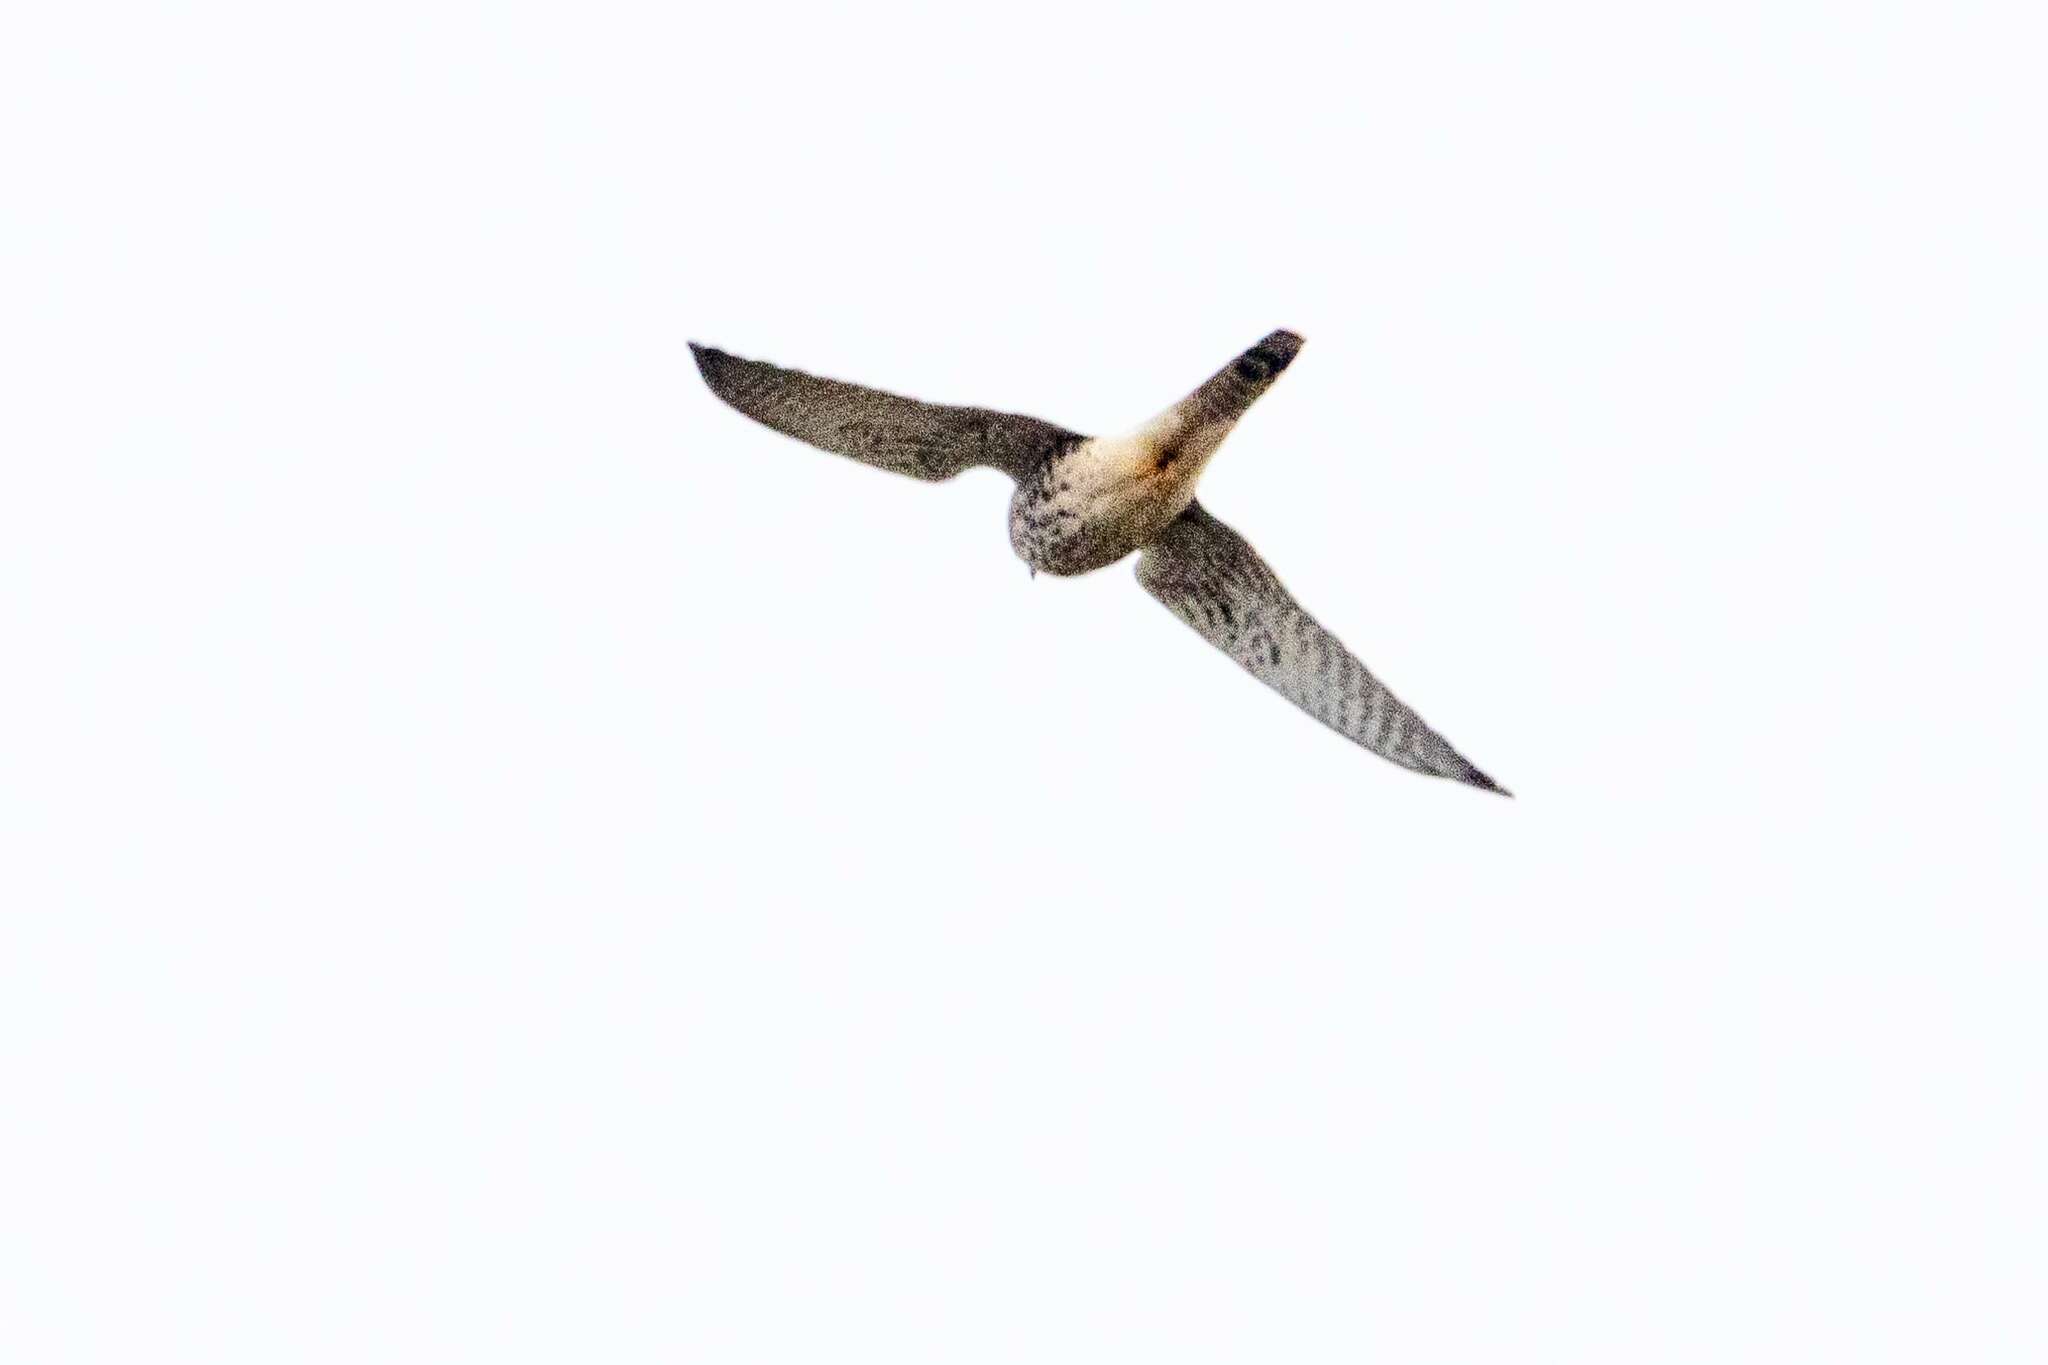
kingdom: Animalia
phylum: Chordata
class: Aves
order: Falconiformes
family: Falconidae
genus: Falco
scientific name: Falco tinnunculus
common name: Common kestrel
